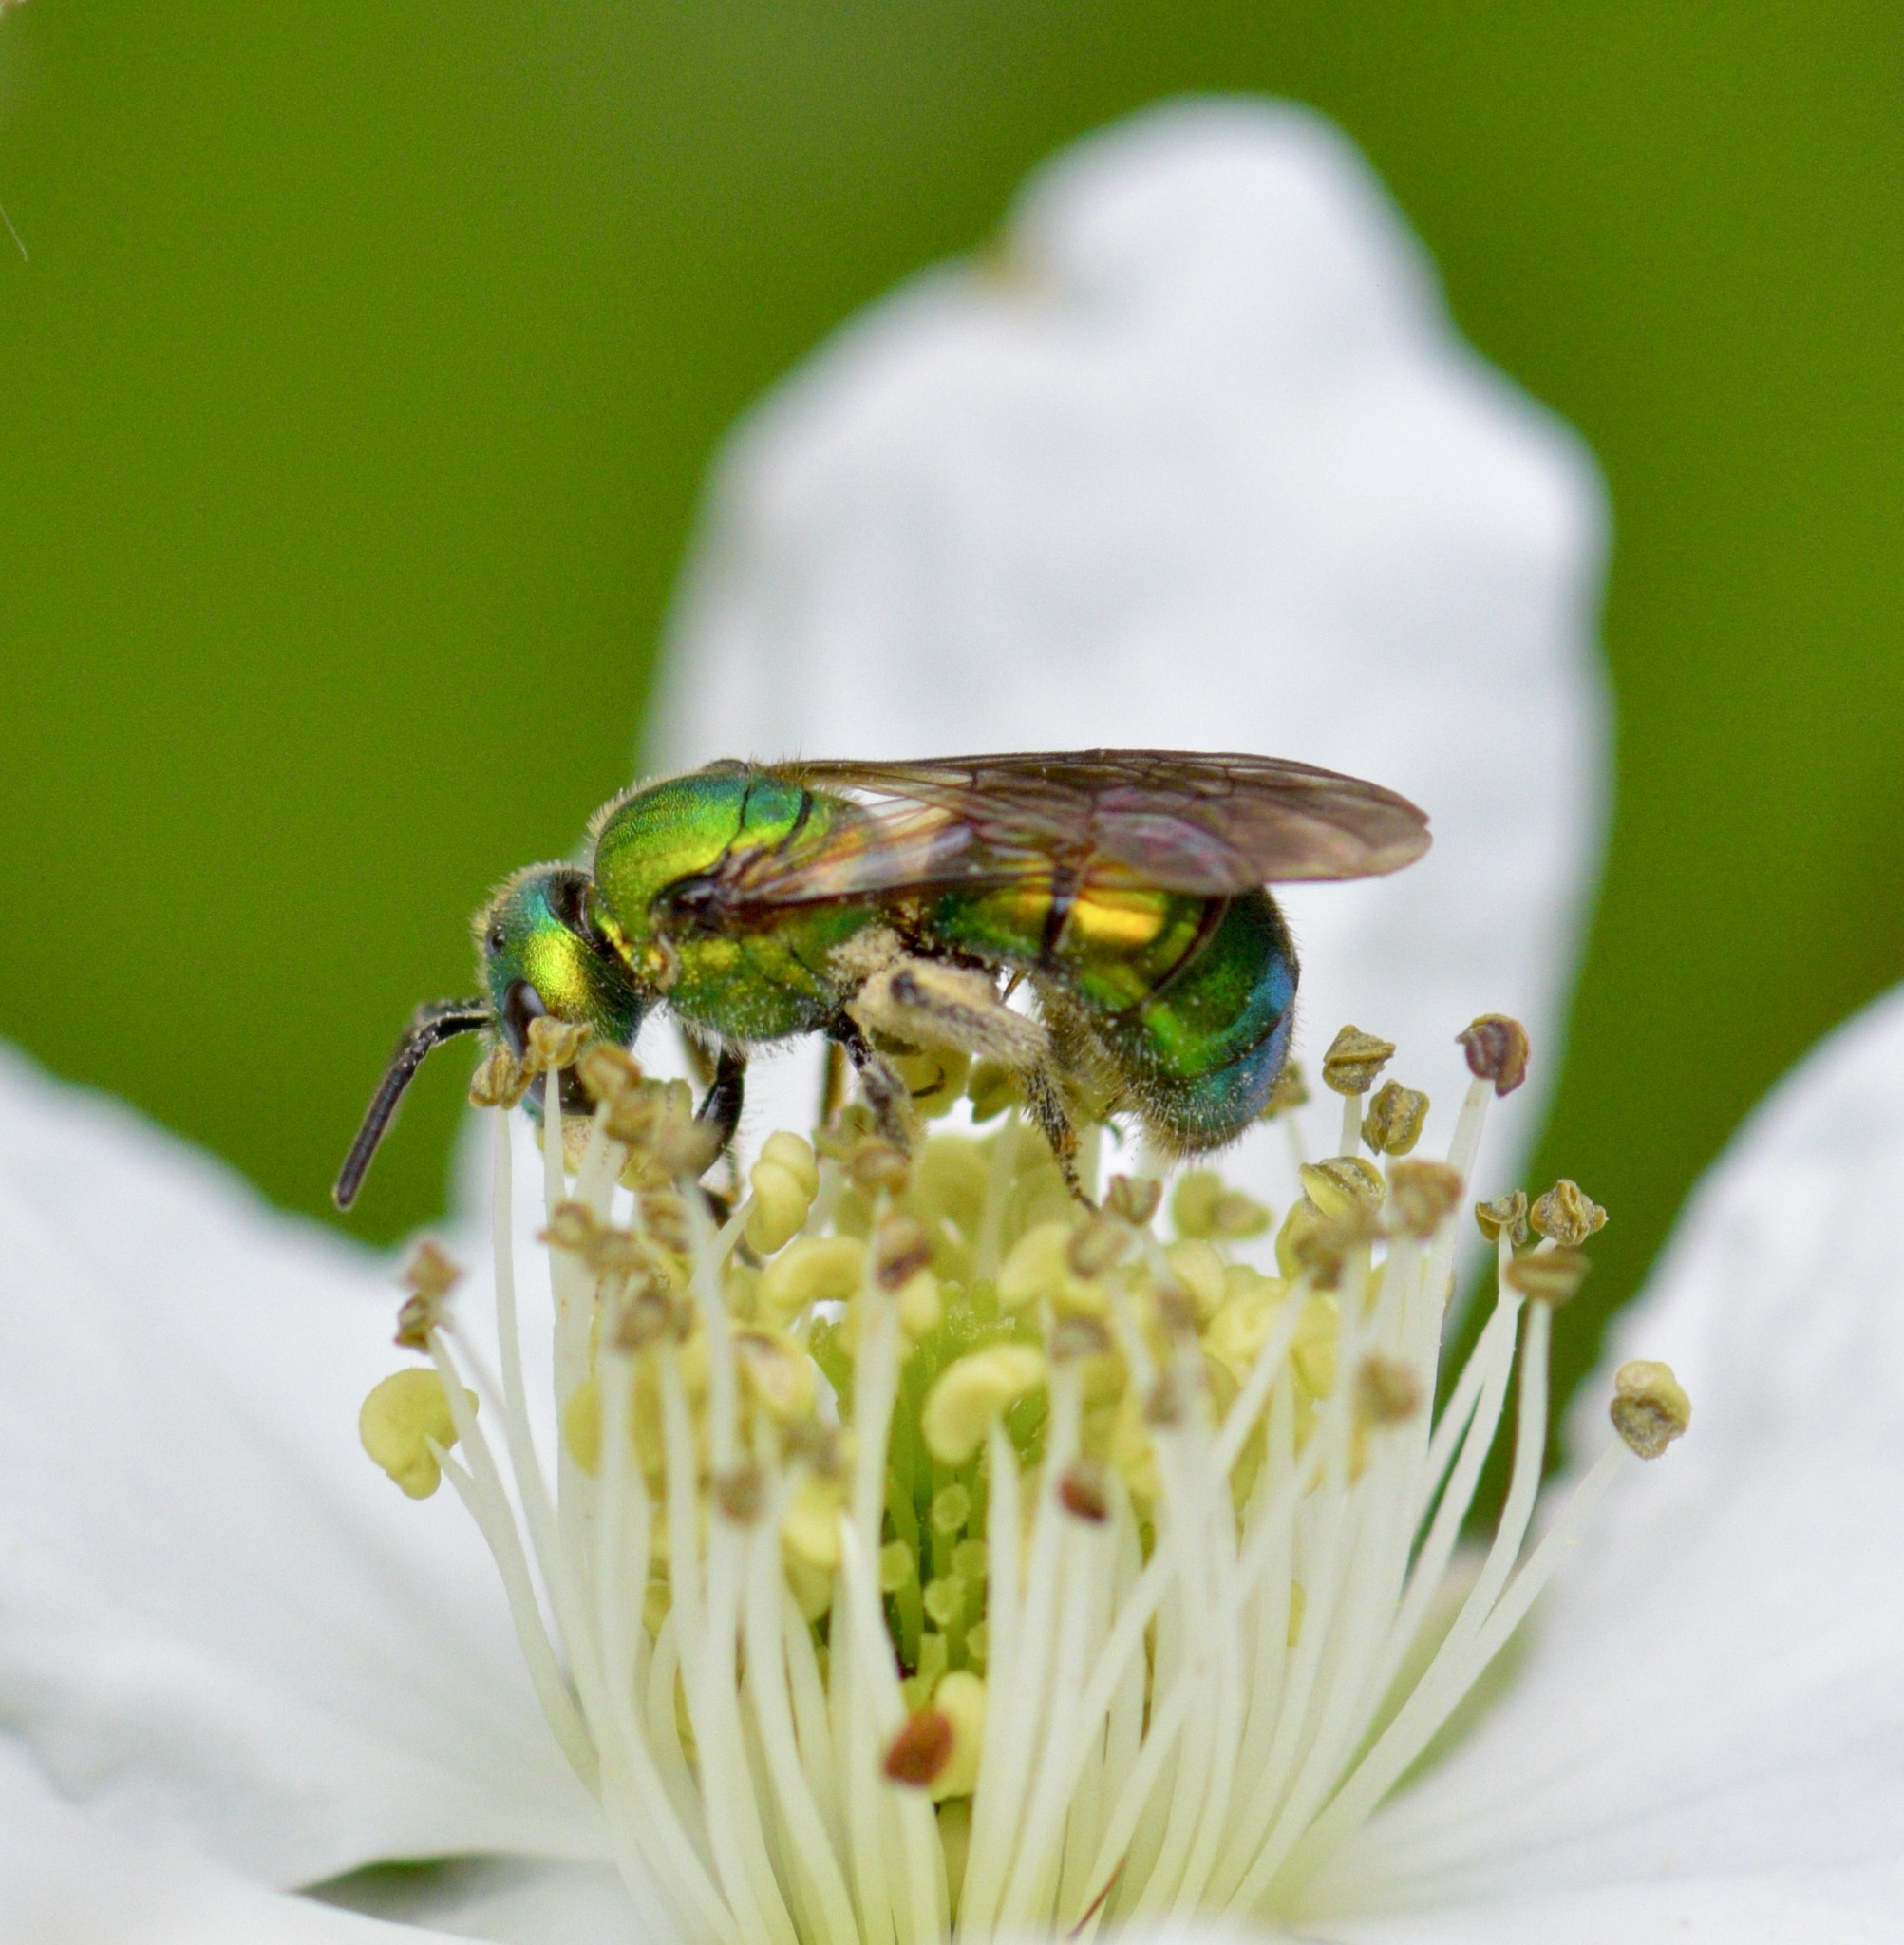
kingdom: Animalia
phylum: Arthropoda
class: Insecta
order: Hymenoptera
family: Halictidae
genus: Augochlora
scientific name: Augochlora pura
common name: Pure green sweat bee
